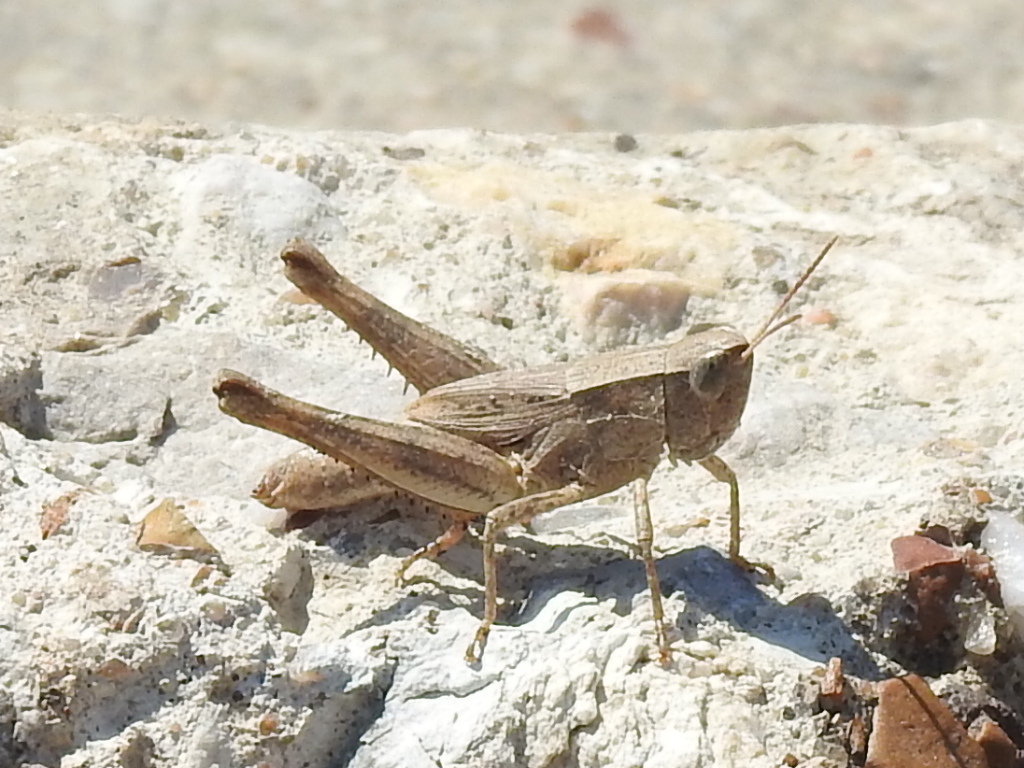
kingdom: Animalia
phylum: Arthropoda
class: Insecta
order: Orthoptera
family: Acrididae
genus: Dichromorpha
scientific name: Dichromorpha viridis
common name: Short-winged green grasshopper
